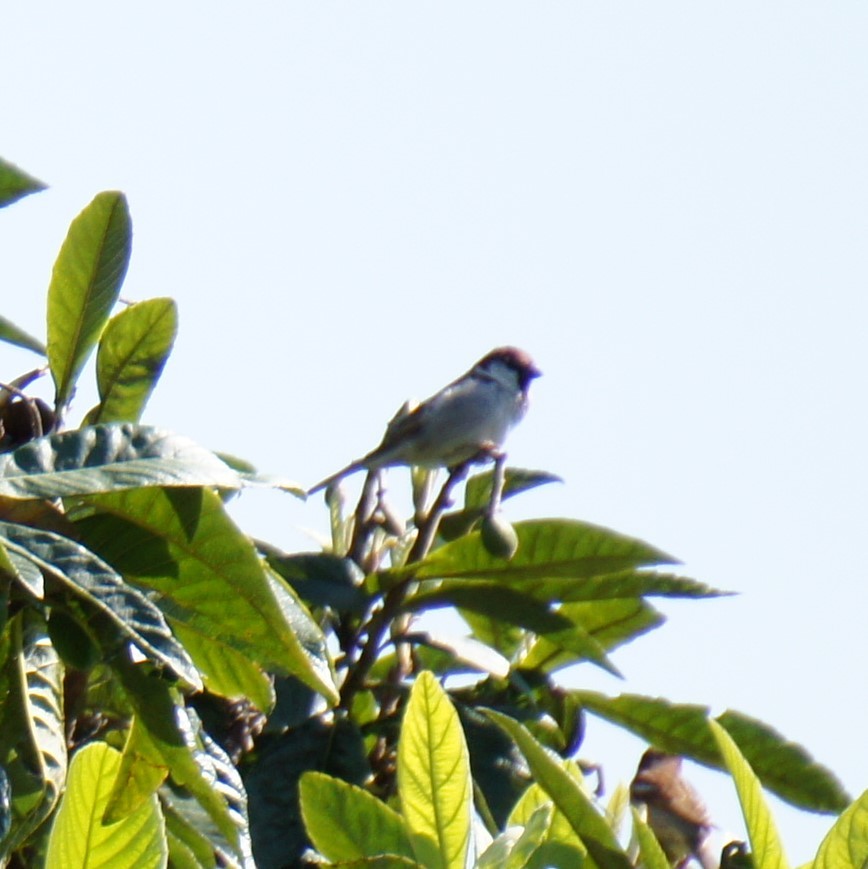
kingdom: Animalia
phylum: Chordata
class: Aves
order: Passeriformes
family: Passeridae
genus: Passer
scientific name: Passer italiae
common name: Italian sparrow
